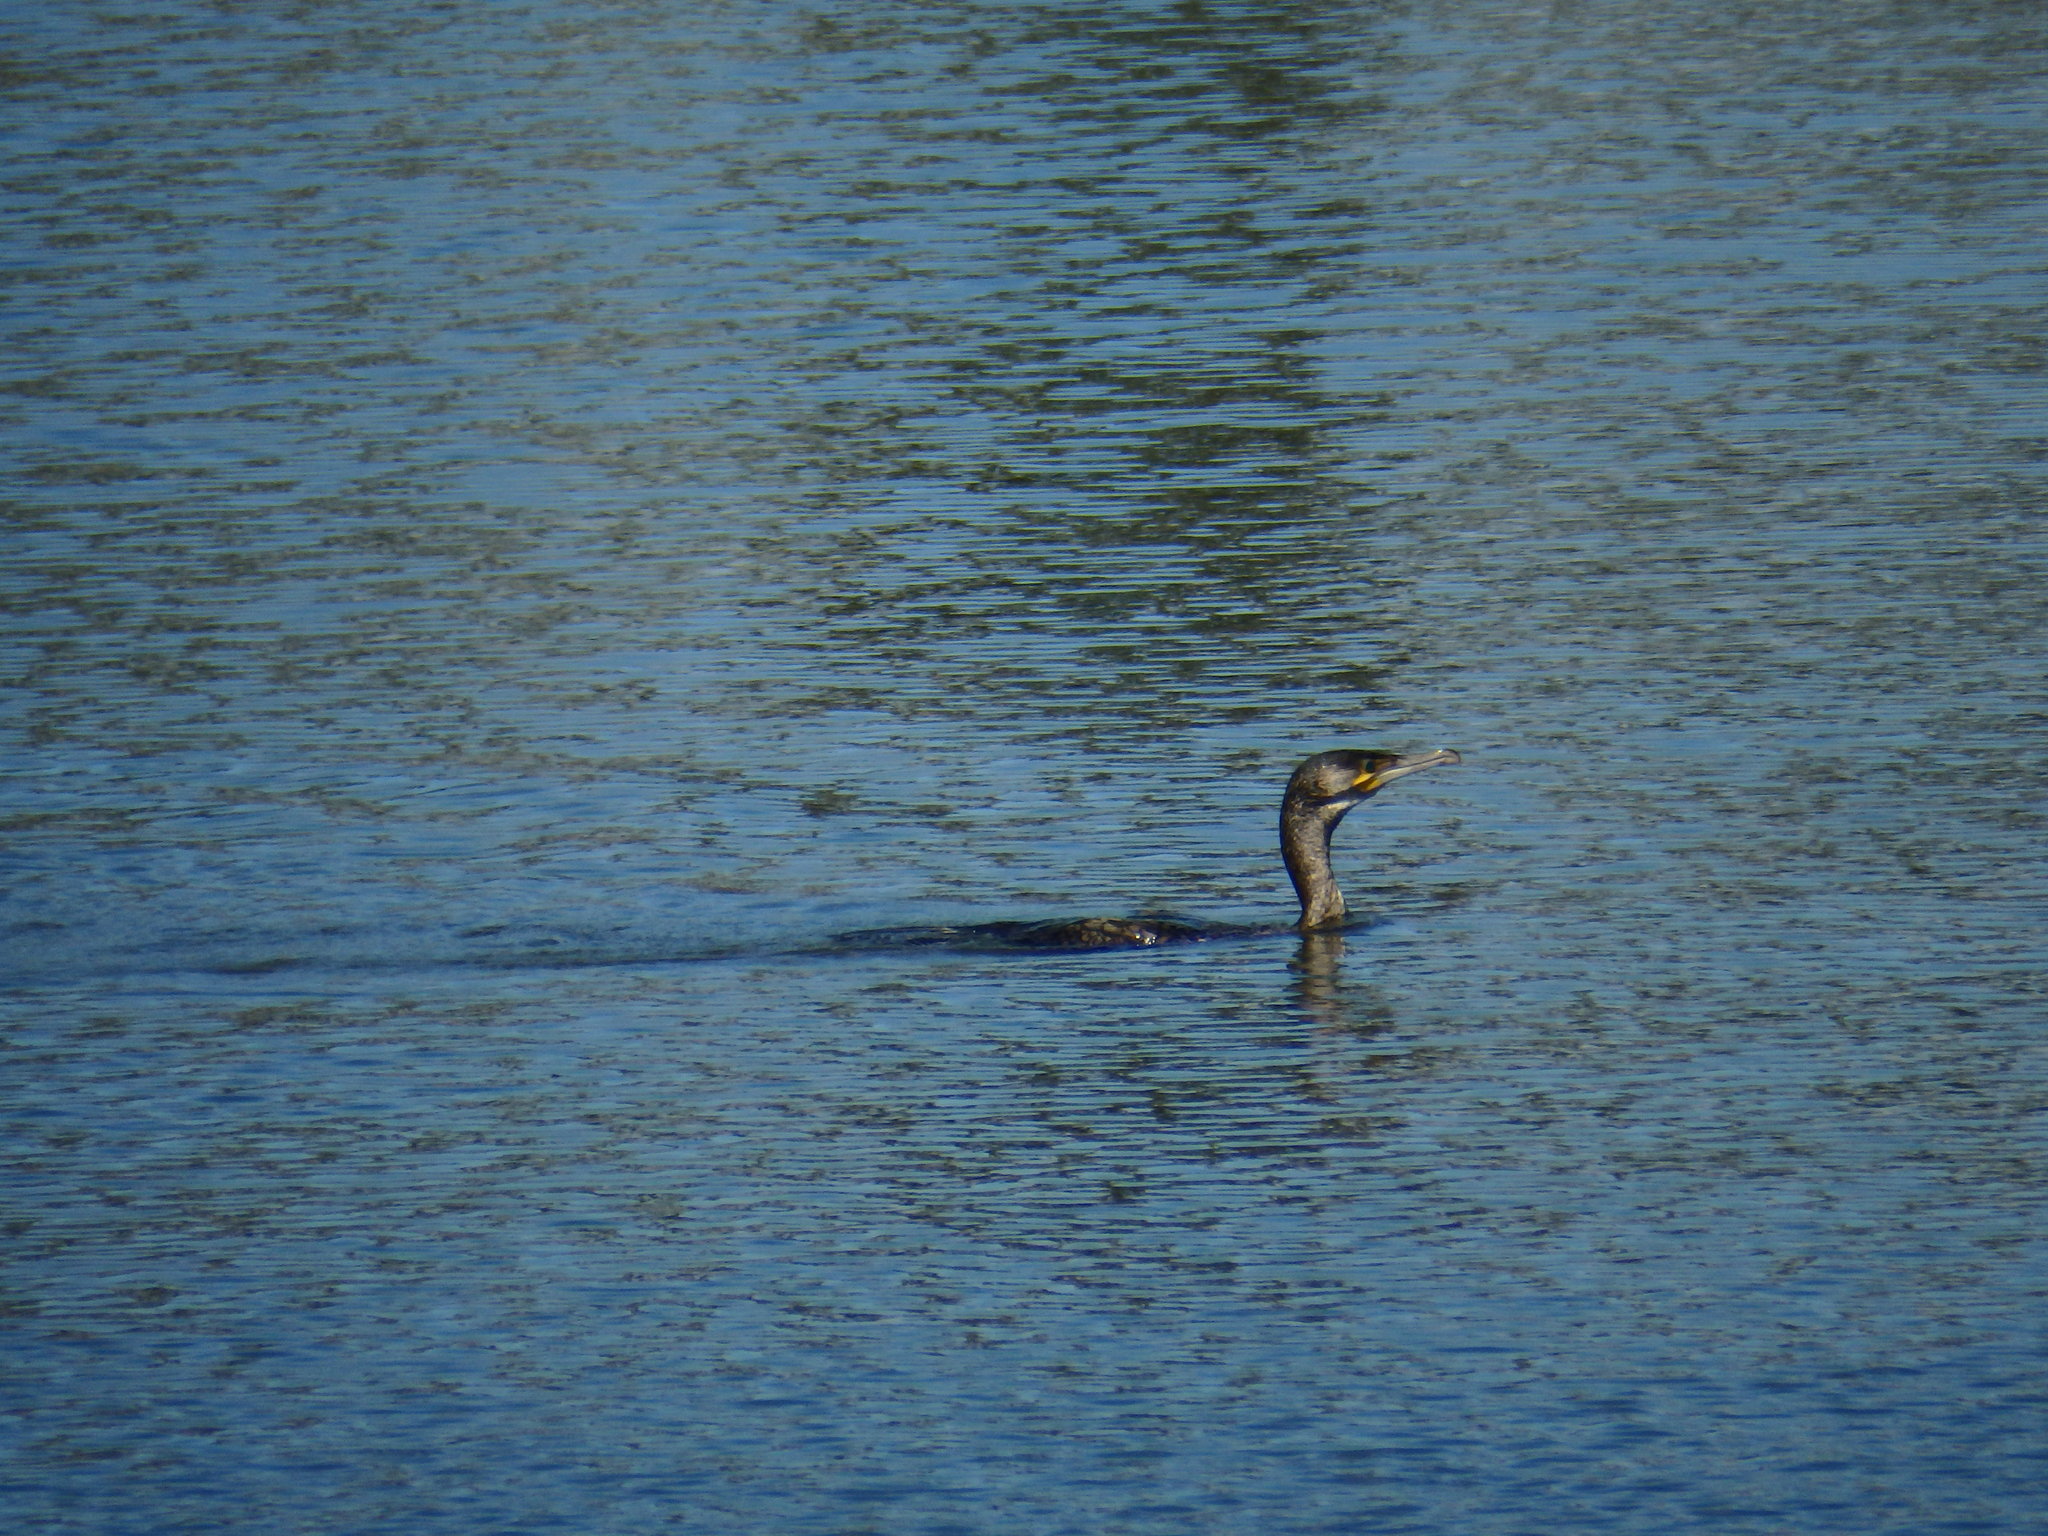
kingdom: Animalia
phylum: Chordata
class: Aves
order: Suliformes
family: Phalacrocoracidae
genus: Phalacrocorax
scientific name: Phalacrocorax carbo
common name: Great cormorant
